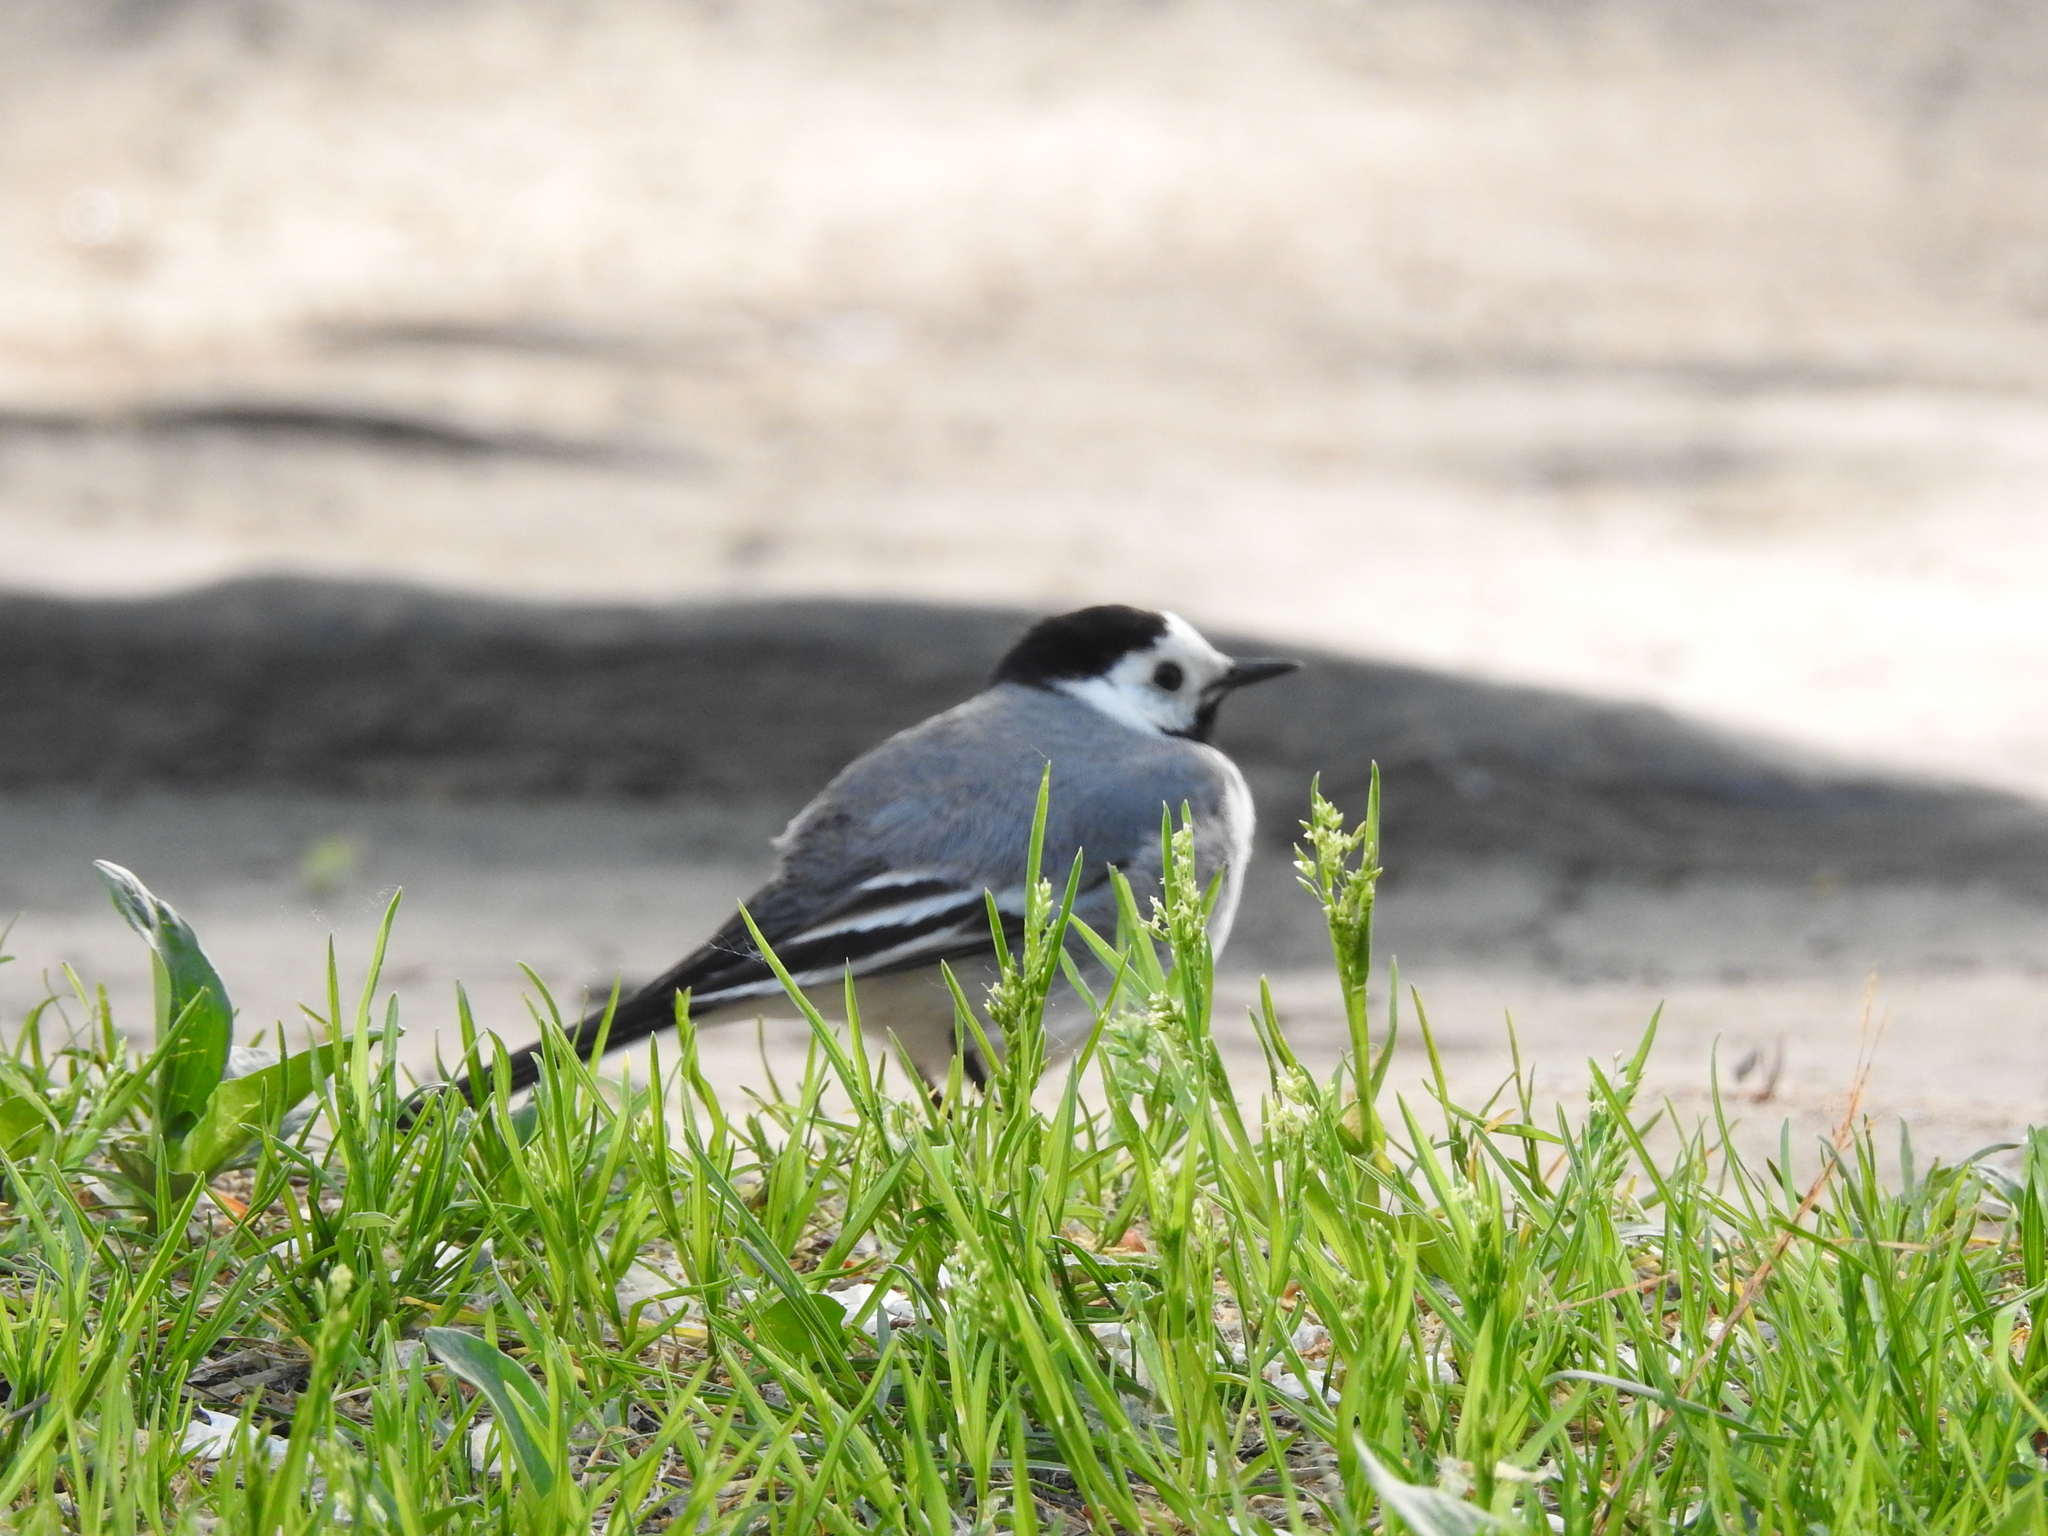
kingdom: Animalia
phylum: Chordata
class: Aves
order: Passeriformes
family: Motacillidae
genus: Motacilla
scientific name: Motacilla alba
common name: White wagtail
